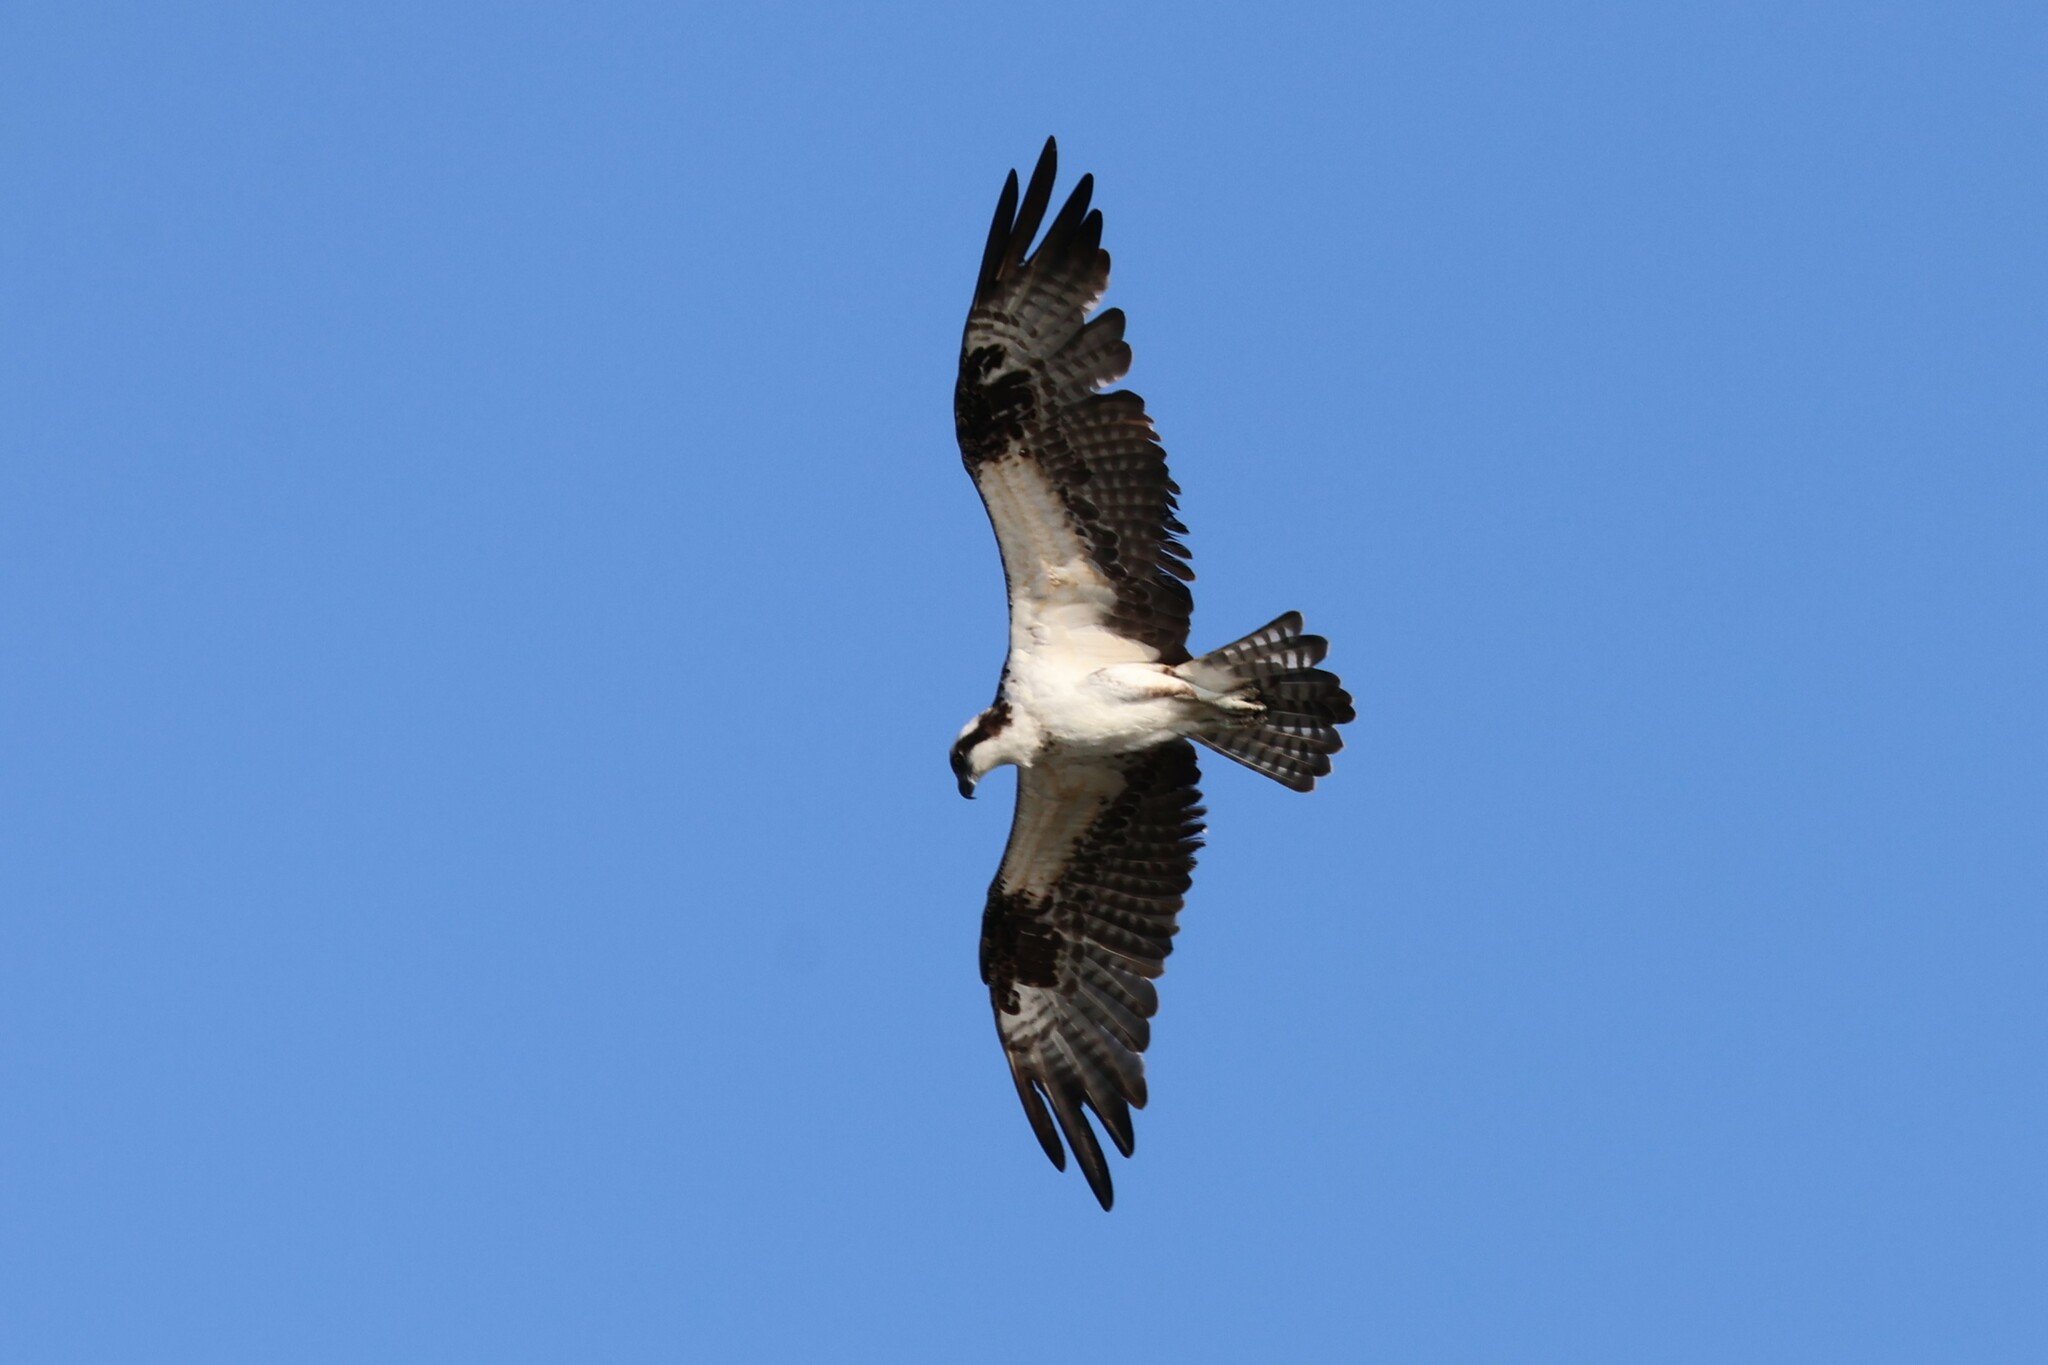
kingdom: Animalia
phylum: Chordata
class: Aves
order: Accipitriformes
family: Pandionidae
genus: Pandion
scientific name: Pandion haliaetus
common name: Osprey
